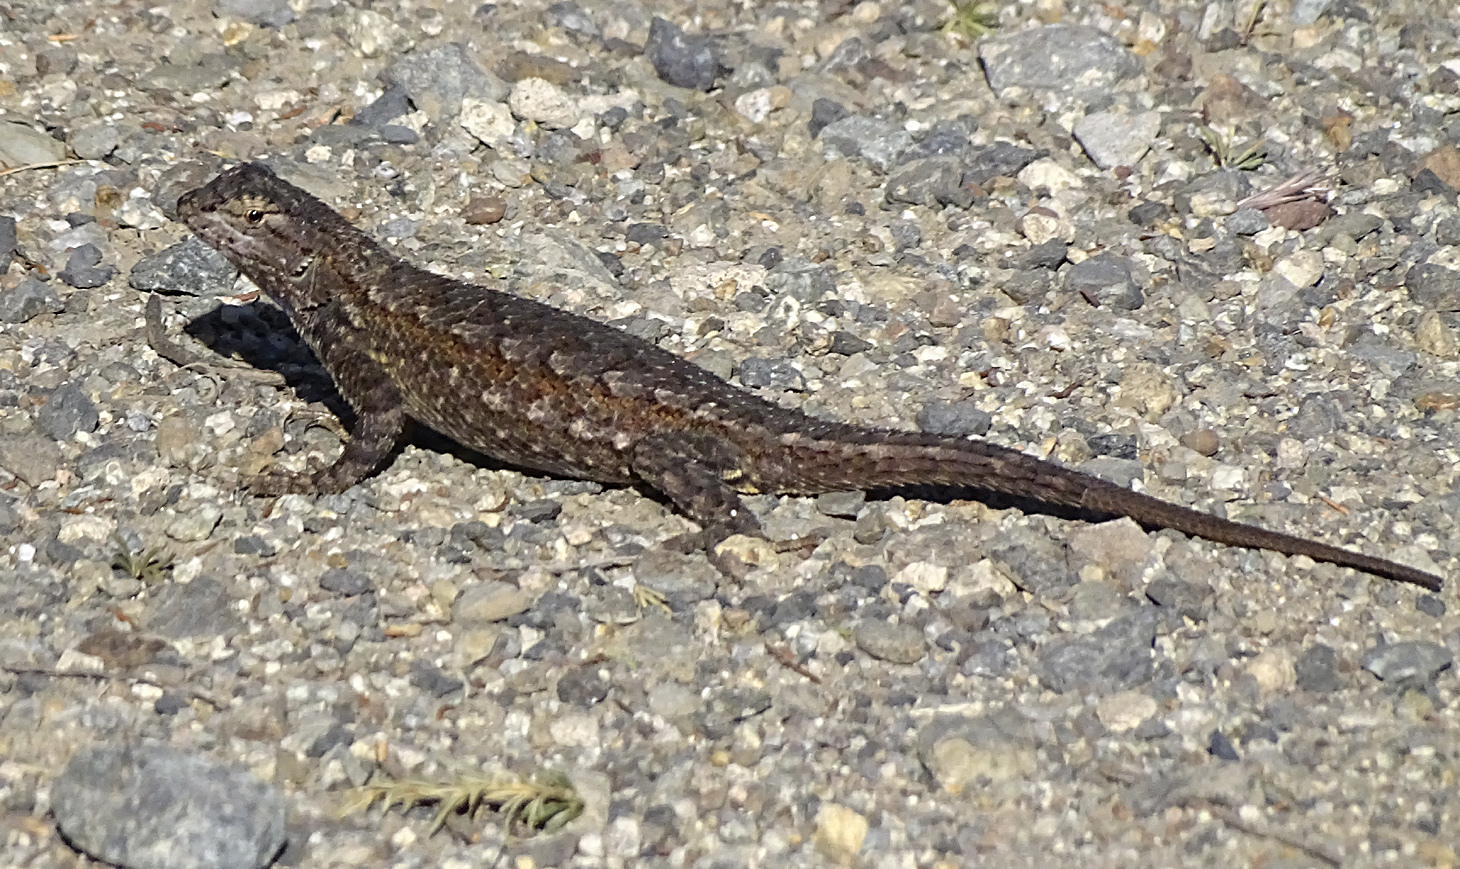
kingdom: Animalia
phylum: Chordata
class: Squamata
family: Phrynosomatidae
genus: Sceloporus
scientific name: Sceloporus occidentalis
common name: Western fence lizard
